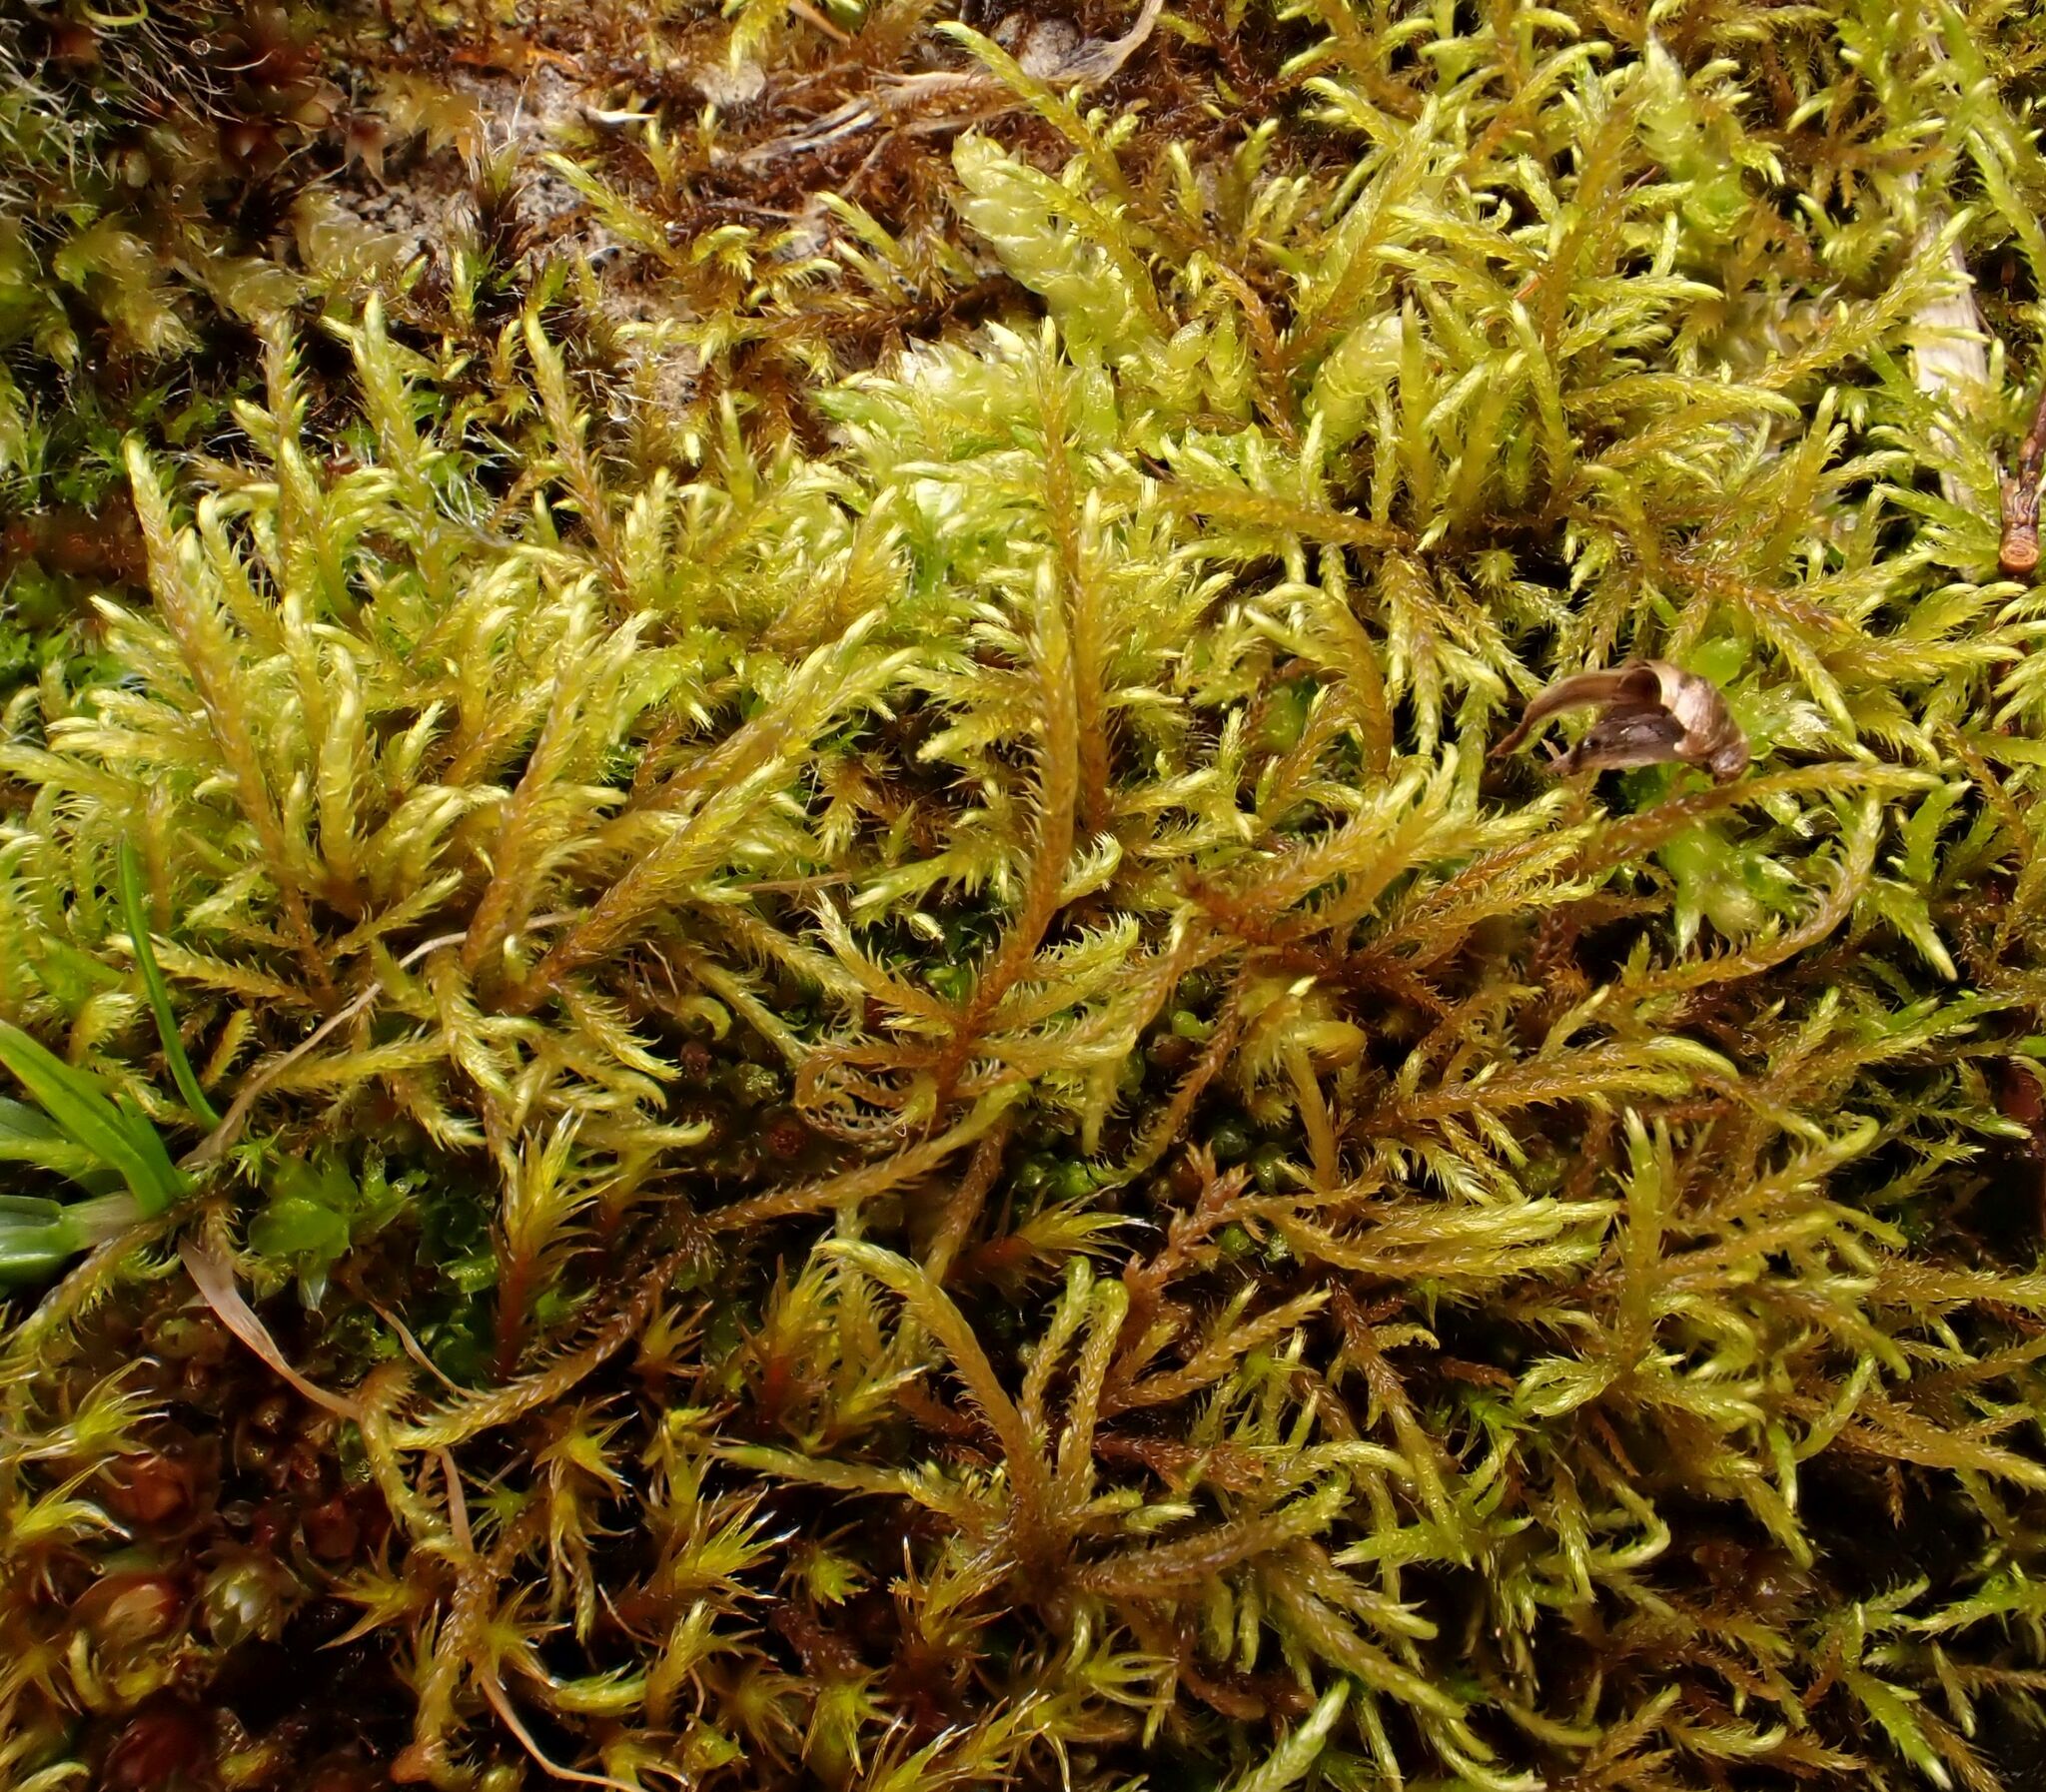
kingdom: Plantae
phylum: Bryophyta
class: Bryopsida
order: Hypnales
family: Amblystegiaceae
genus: Cratoneuron
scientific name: Cratoneuron filicinum
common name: Fern-leaved hook moss
